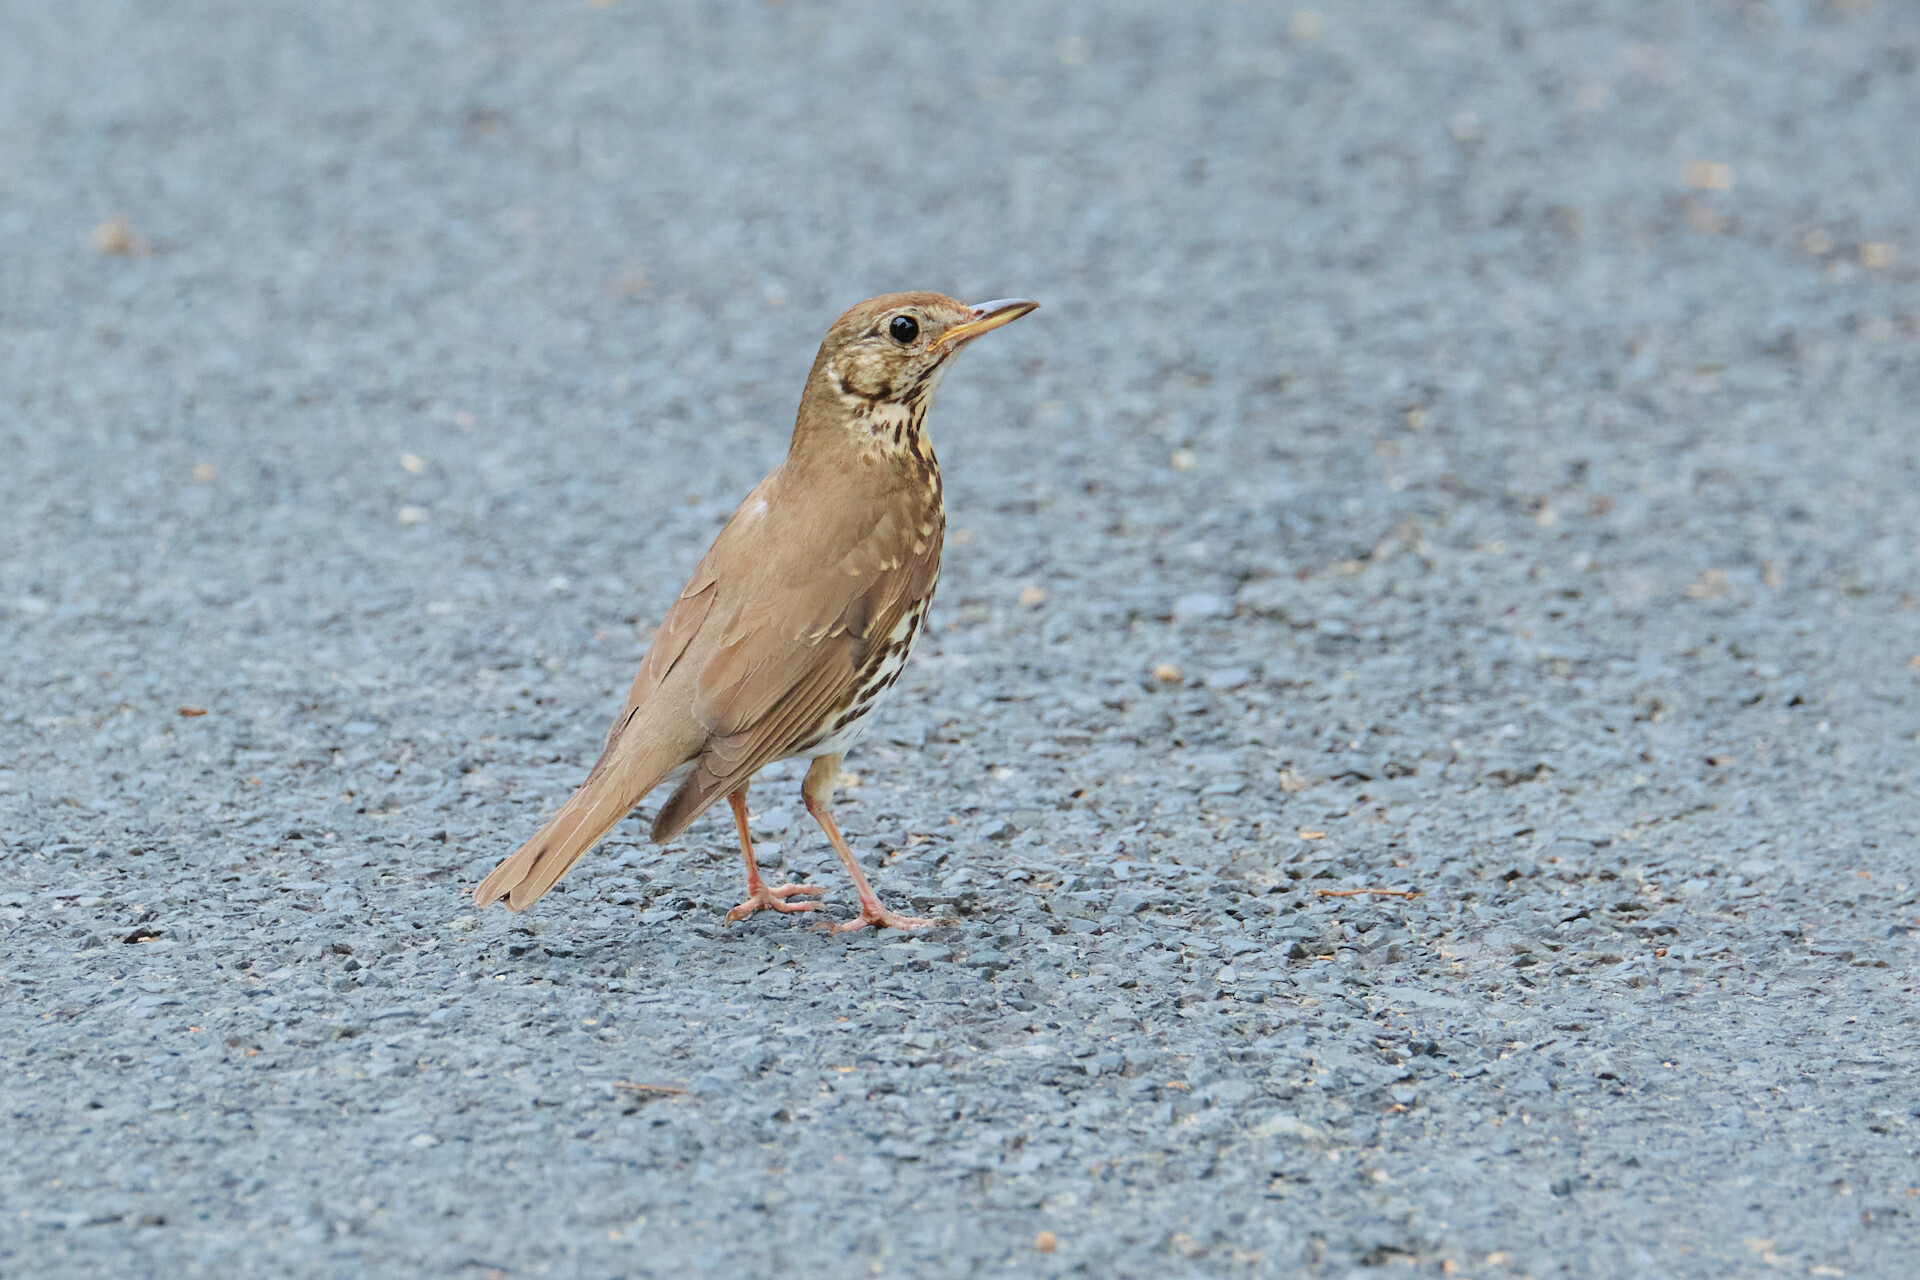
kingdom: Animalia
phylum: Chordata
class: Aves
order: Passeriformes
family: Turdidae
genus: Turdus
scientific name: Turdus philomelos
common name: Song thrush
